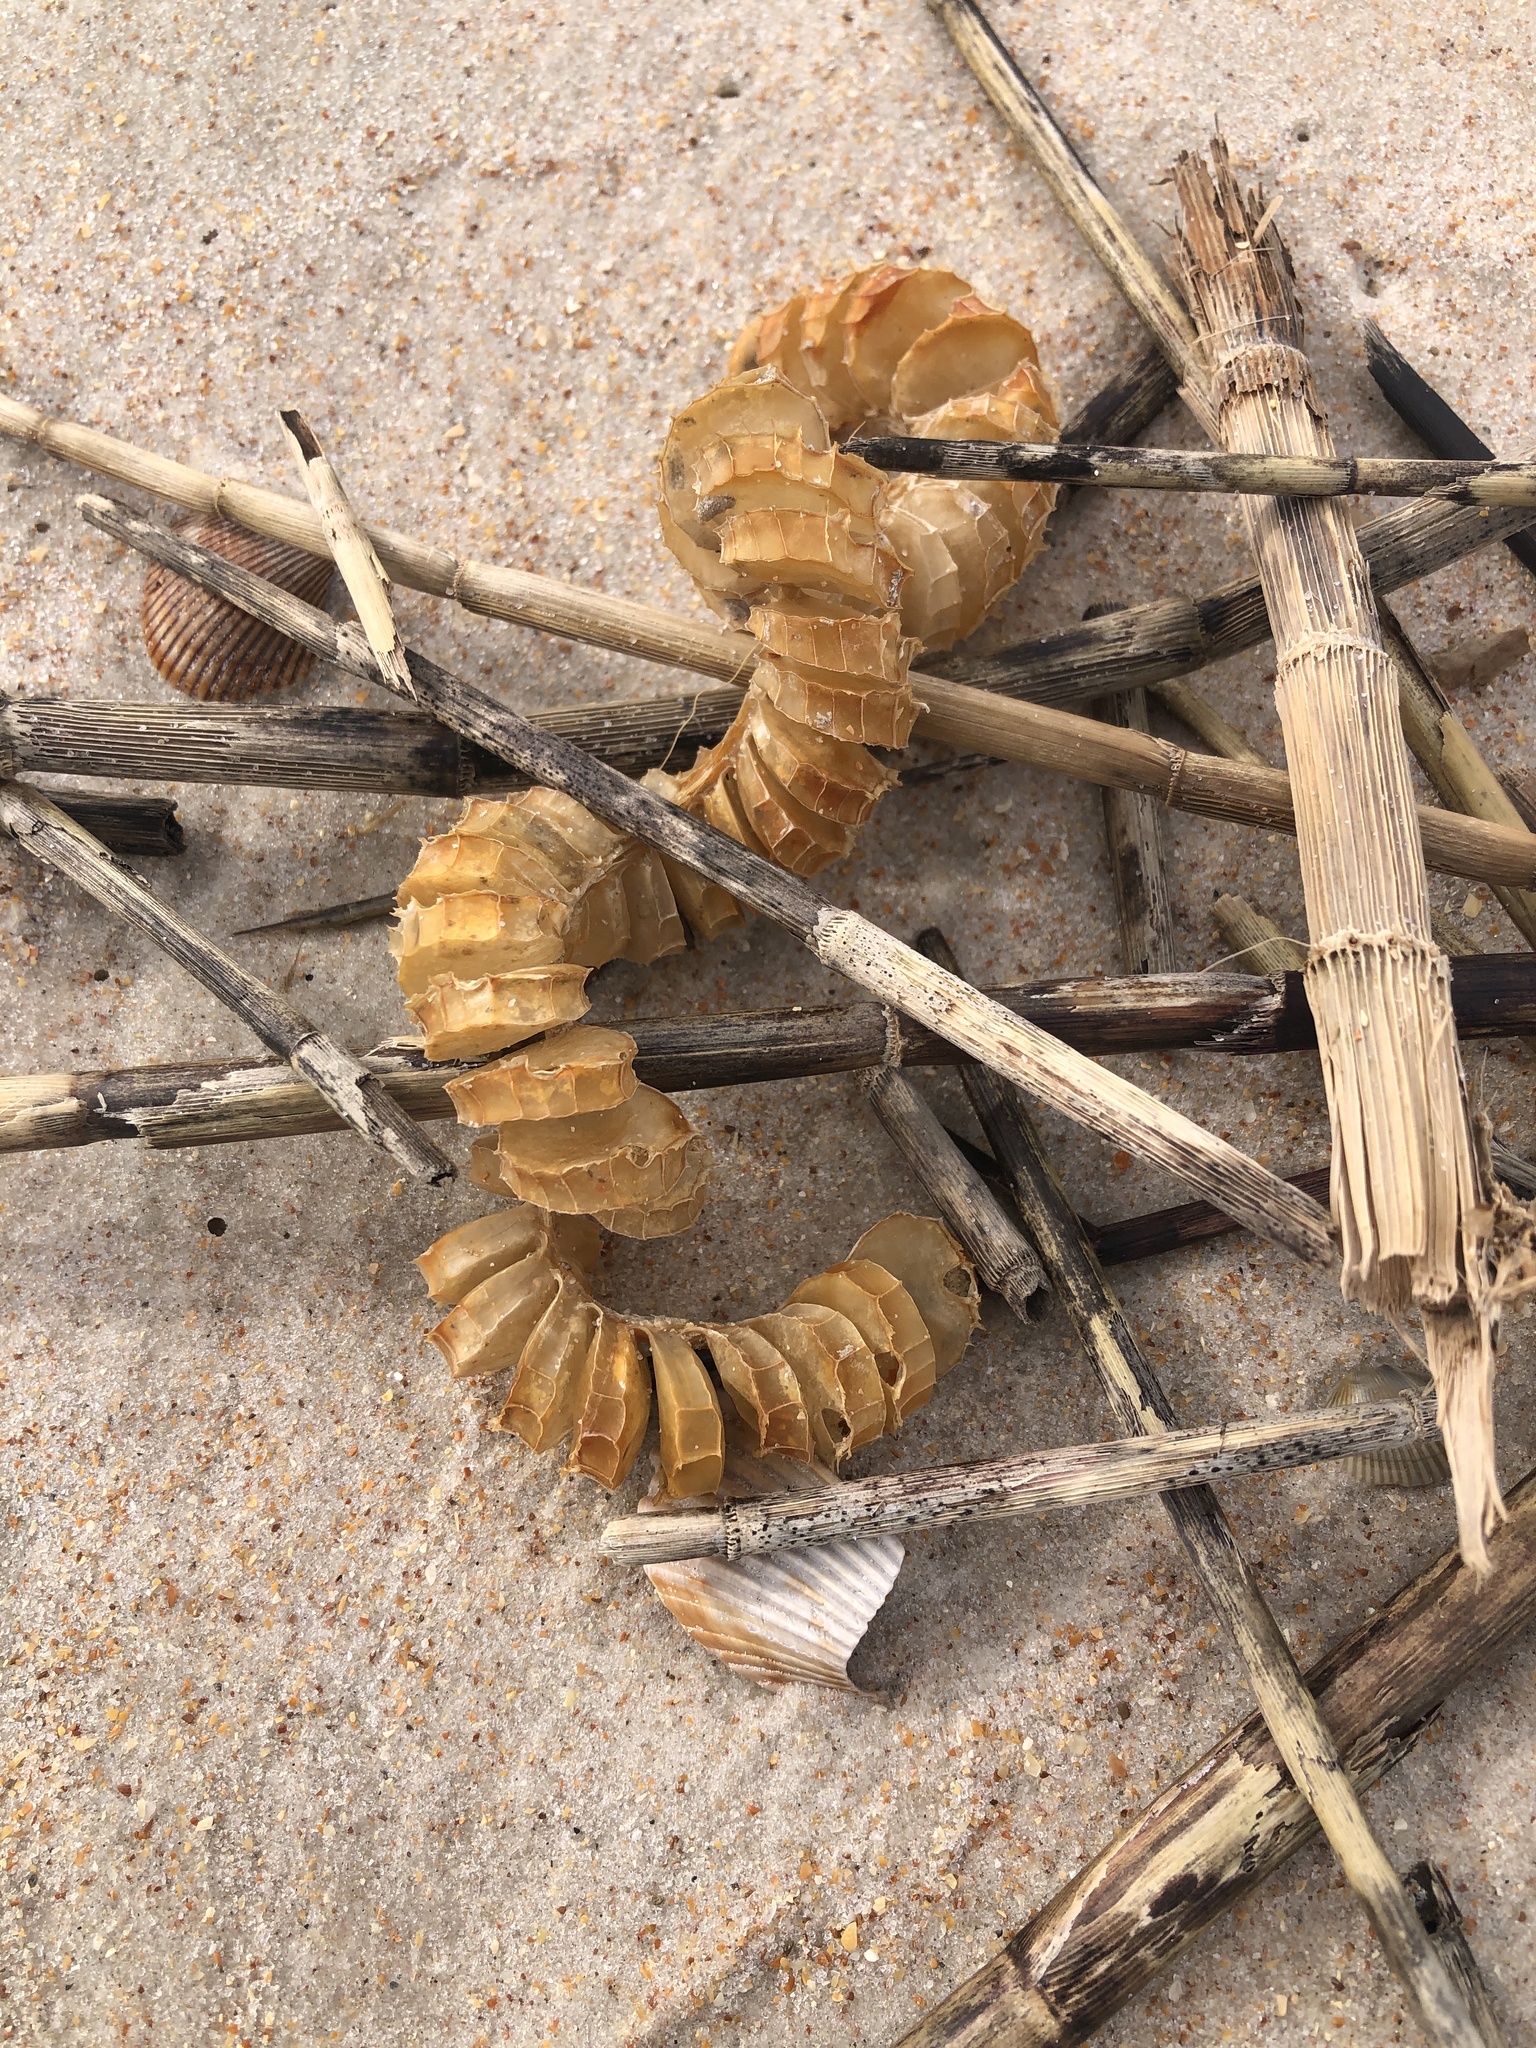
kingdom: Animalia
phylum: Mollusca
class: Gastropoda
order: Neogastropoda
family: Busyconidae
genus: Busycon
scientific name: Busycon carica
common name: Knobbed whelk
